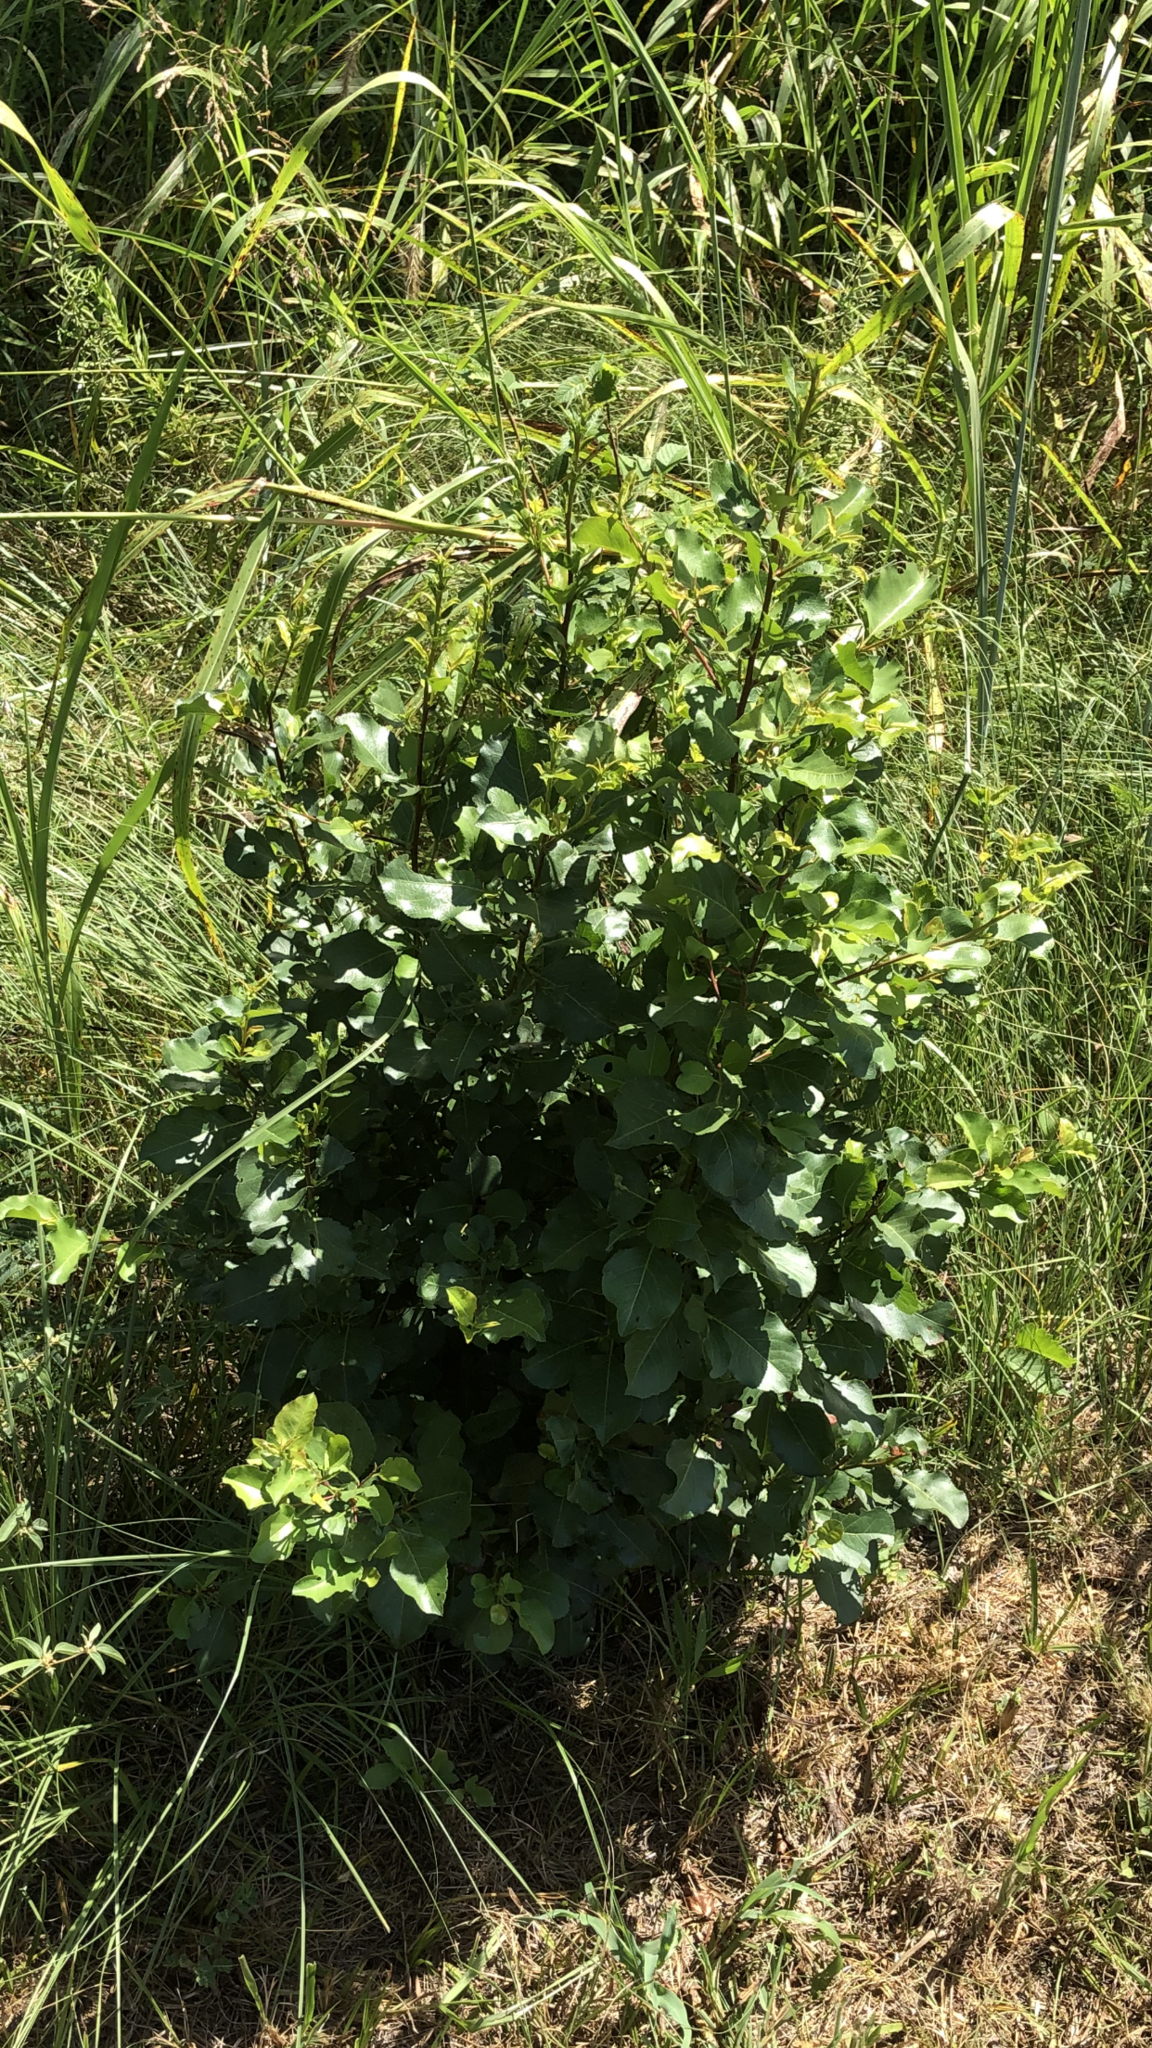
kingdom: Plantae
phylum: Tracheophyta
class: Magnoliopsida
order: Rosales
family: Rosaceae
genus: Pyrus
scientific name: Pyrus calleryana
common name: Callery pear
